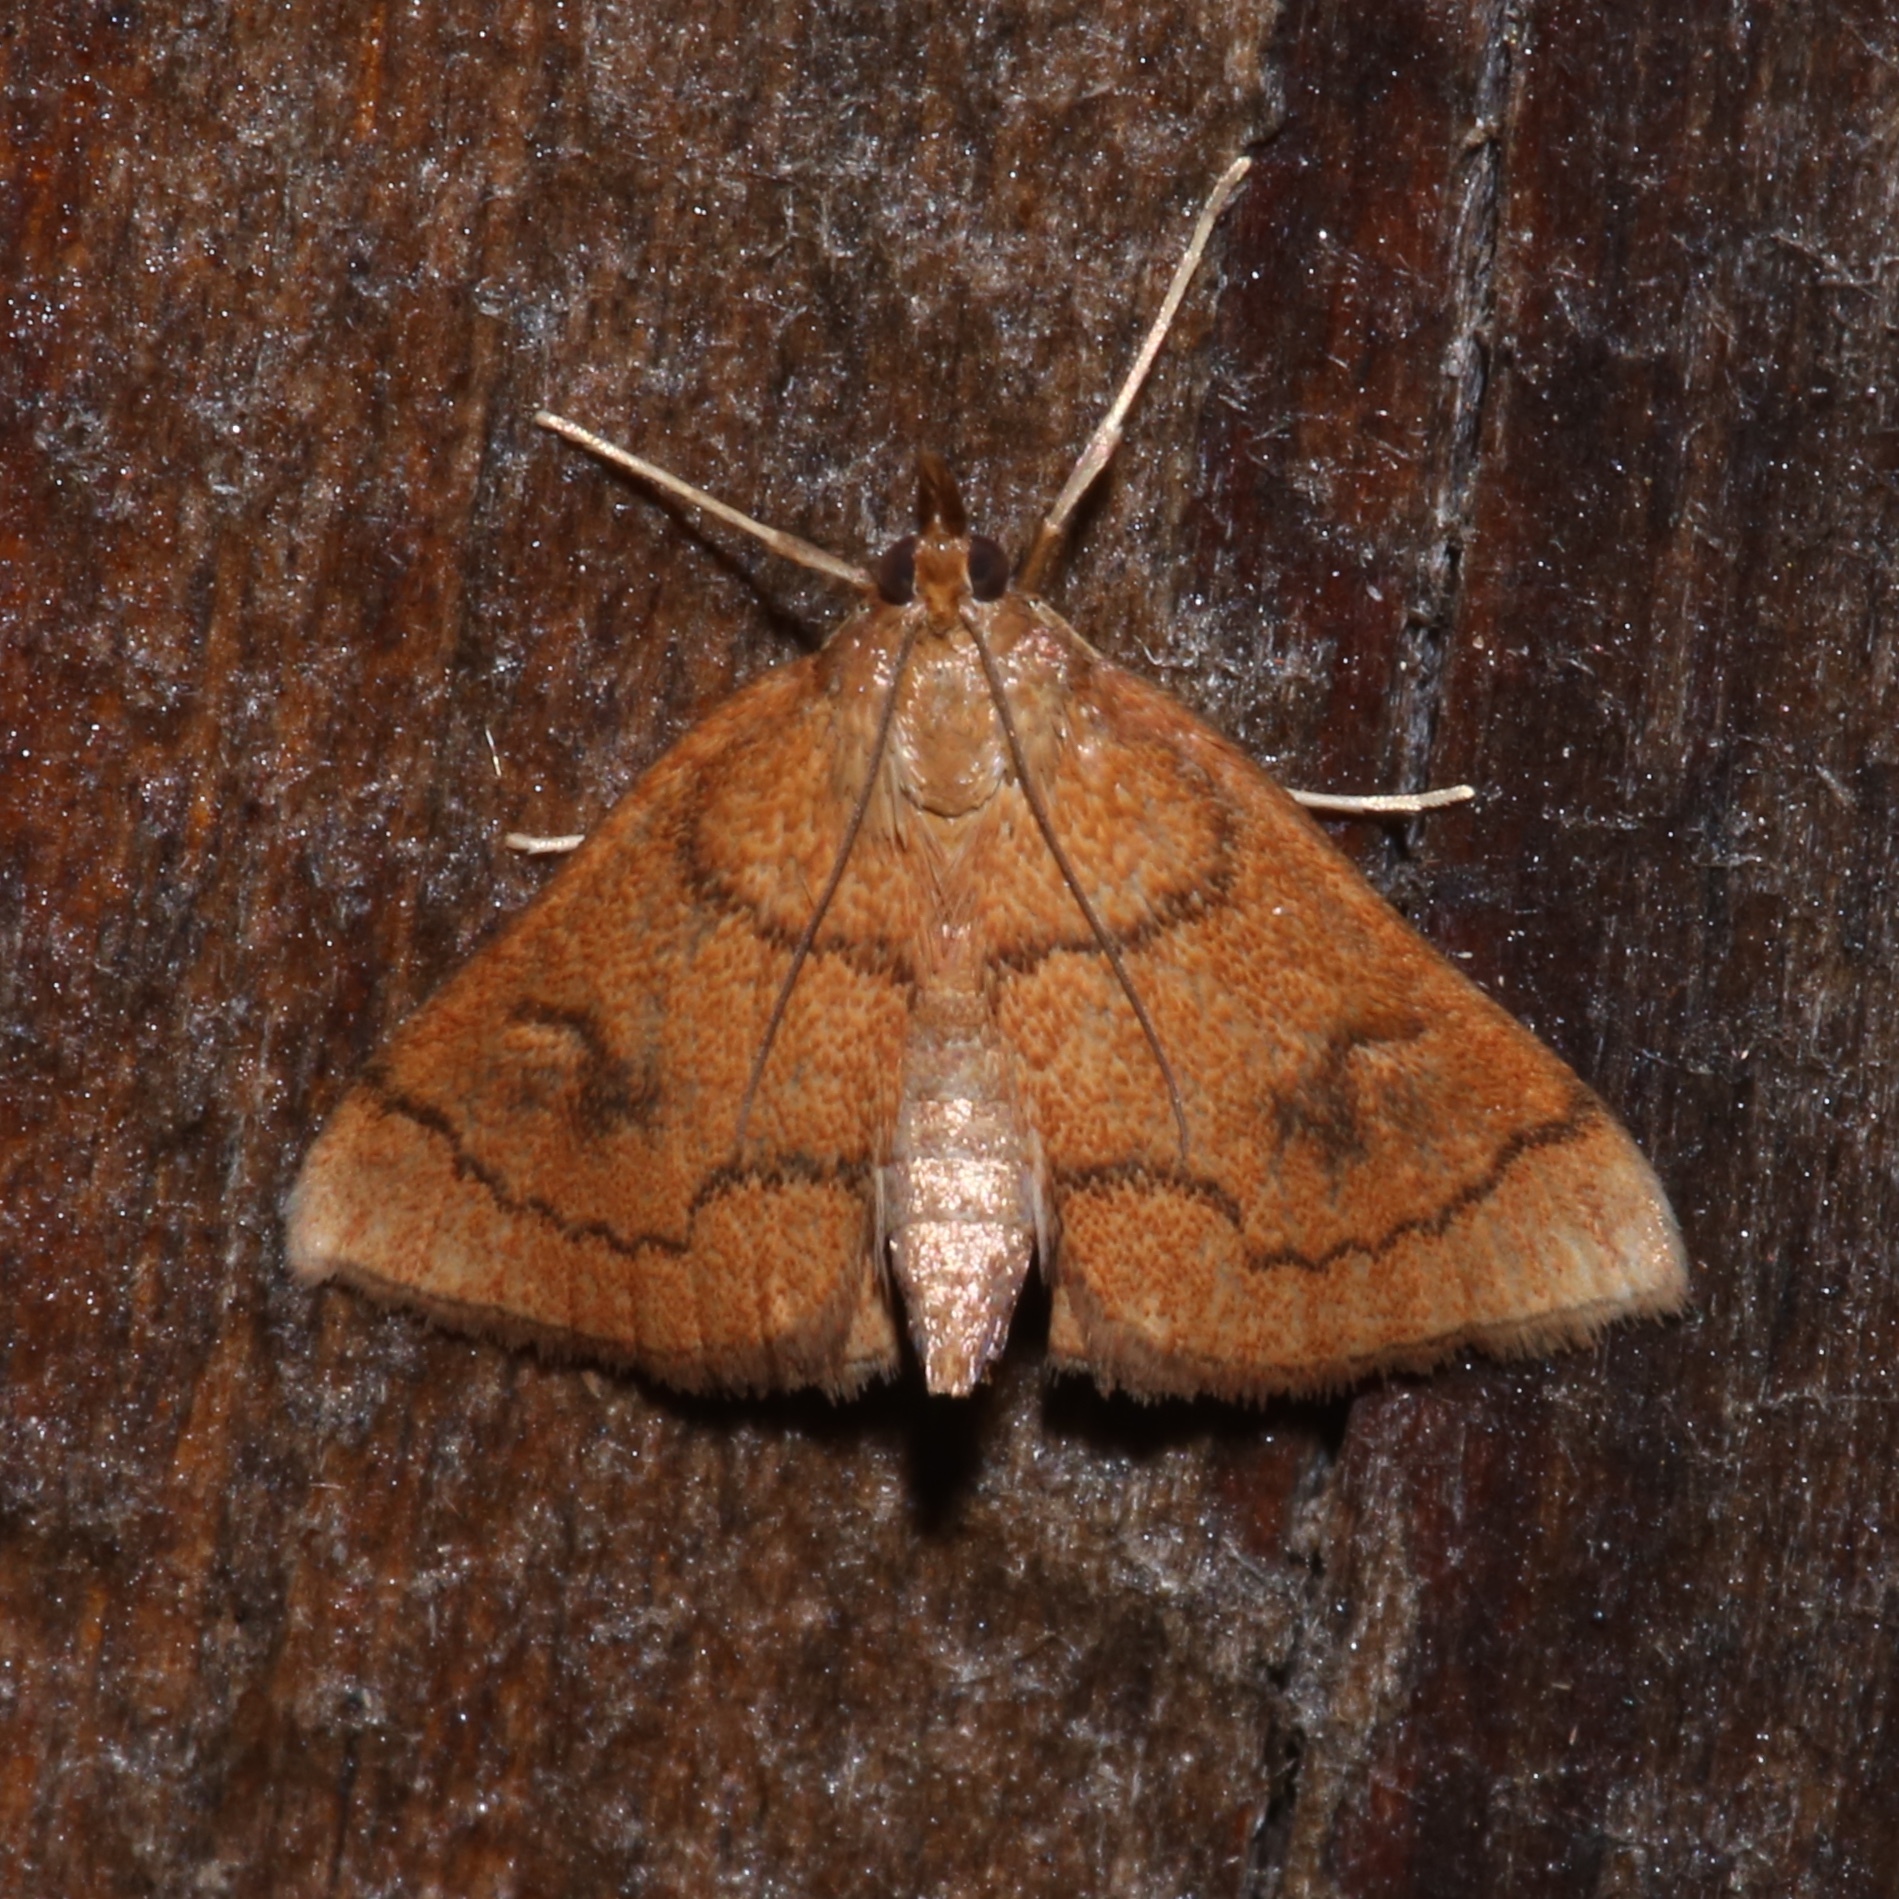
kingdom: Animalia
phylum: Arthropoda
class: Insecta
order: Lepidoptera
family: Crambidae
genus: Fumibotys
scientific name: Fumibotys fumalis
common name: Mint root borer moth
